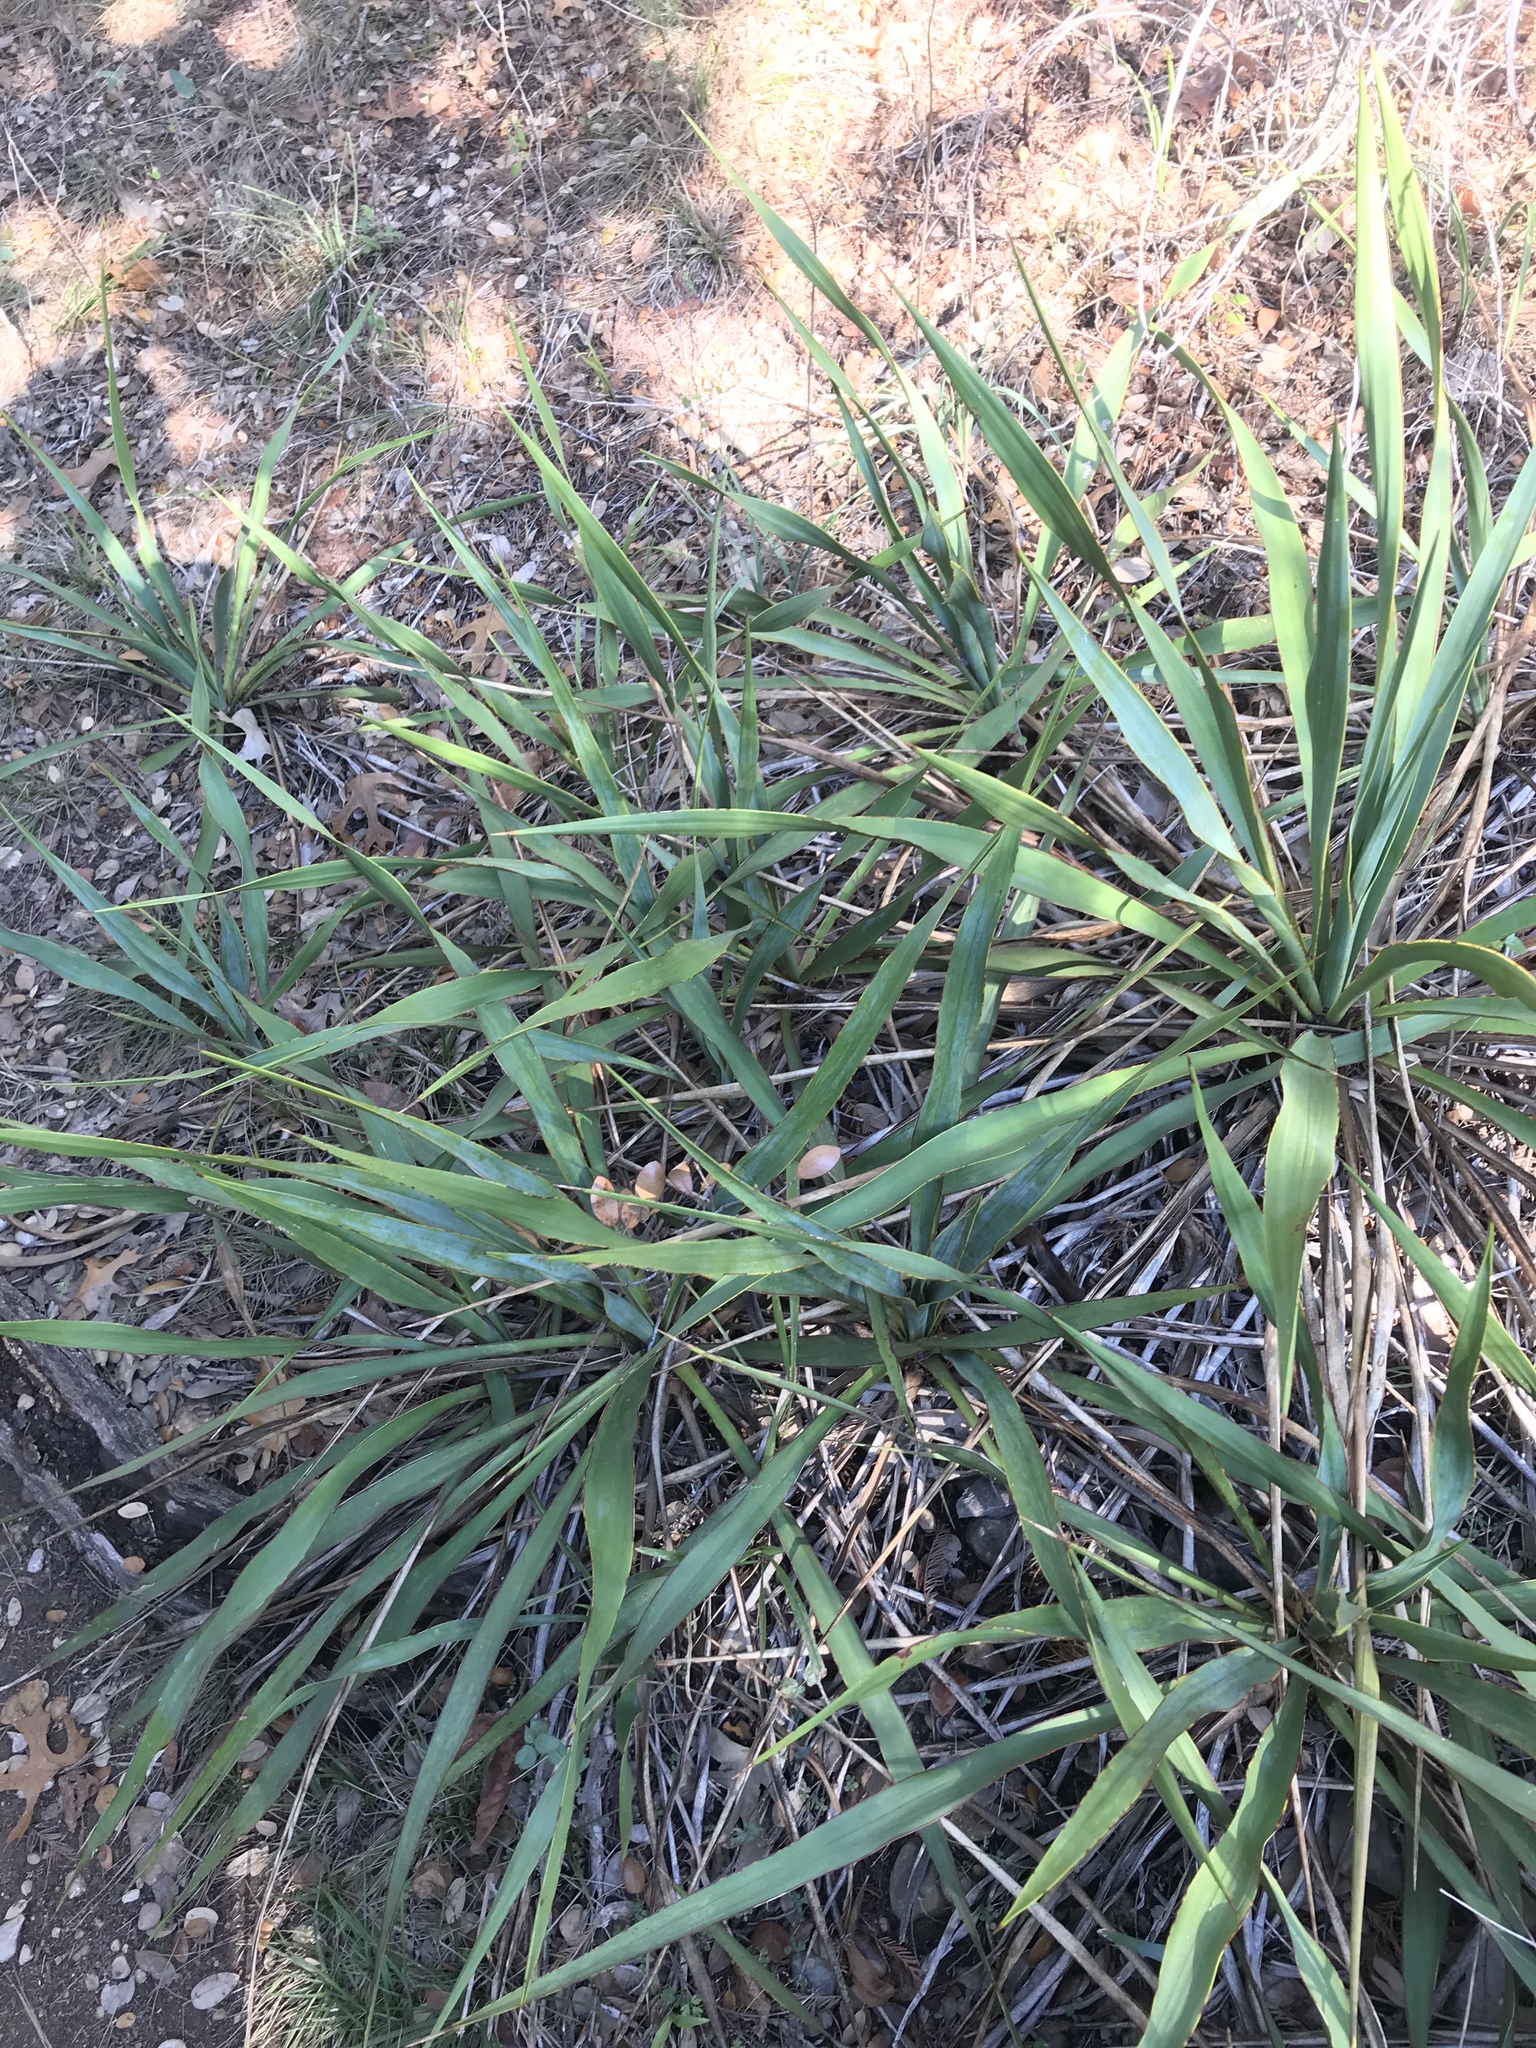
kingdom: Plantae
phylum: Tracheophyta
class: Liliopsida
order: Asparagales
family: Asparagaceae
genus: Yucca
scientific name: Yucca rupicola
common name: Twisted-leaf spanish-dagger
